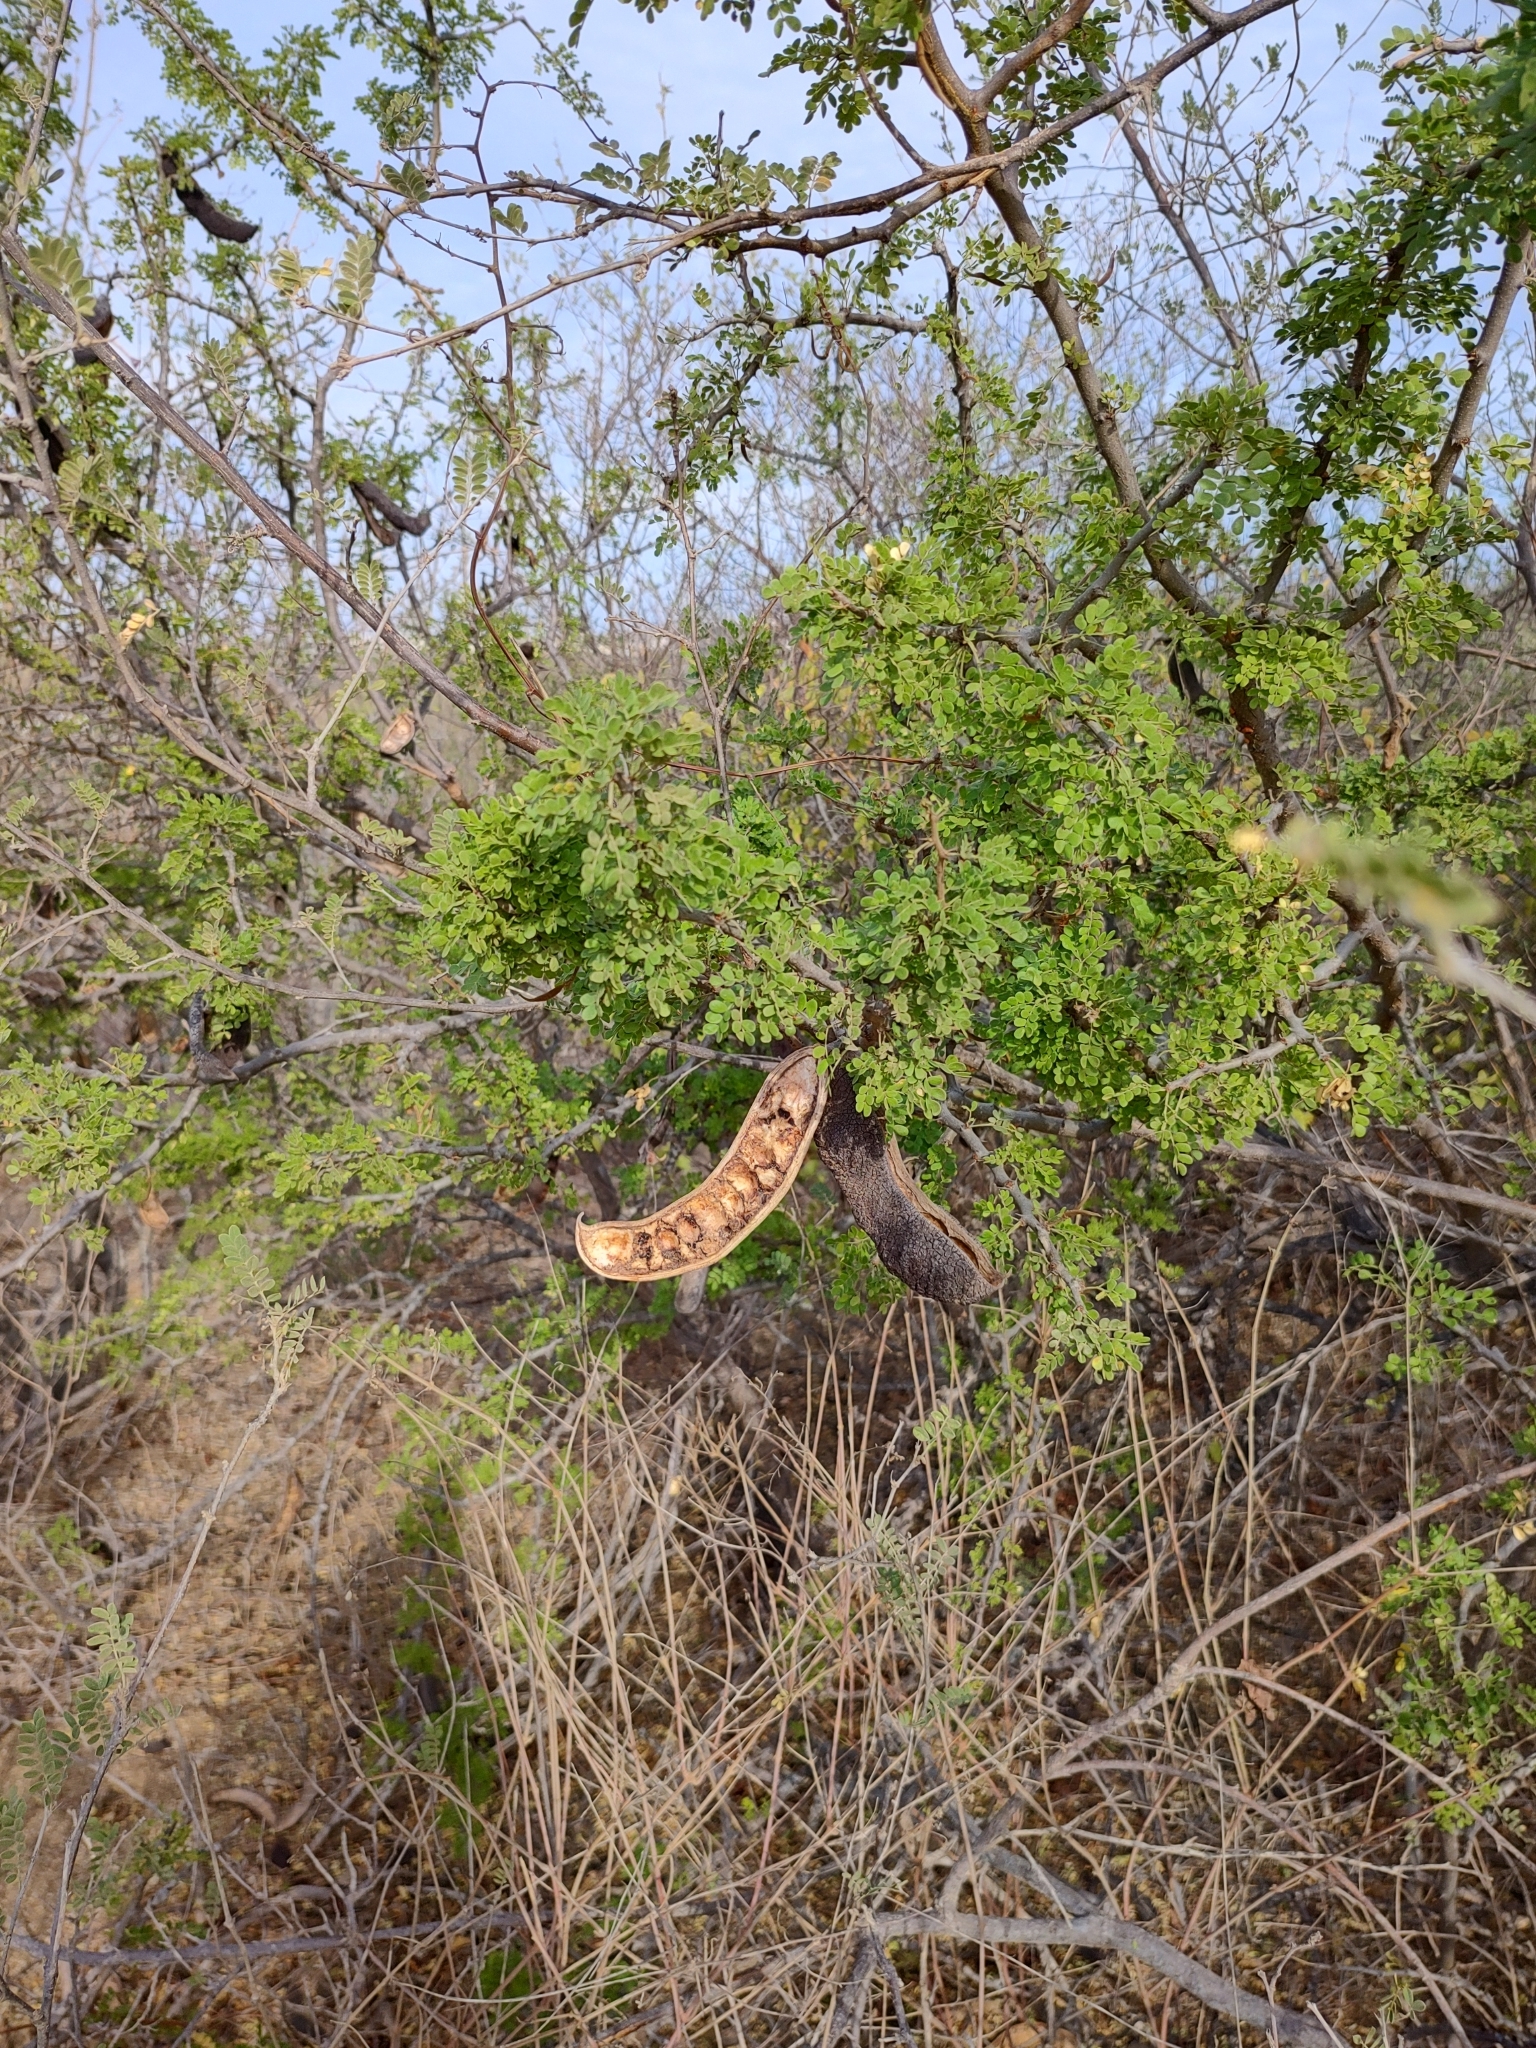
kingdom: Plantae
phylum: Tracheophyta
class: Magnoliopsida
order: Fabales
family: Fabaceae
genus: Ebenopsis
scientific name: Ebenopsis confinis
